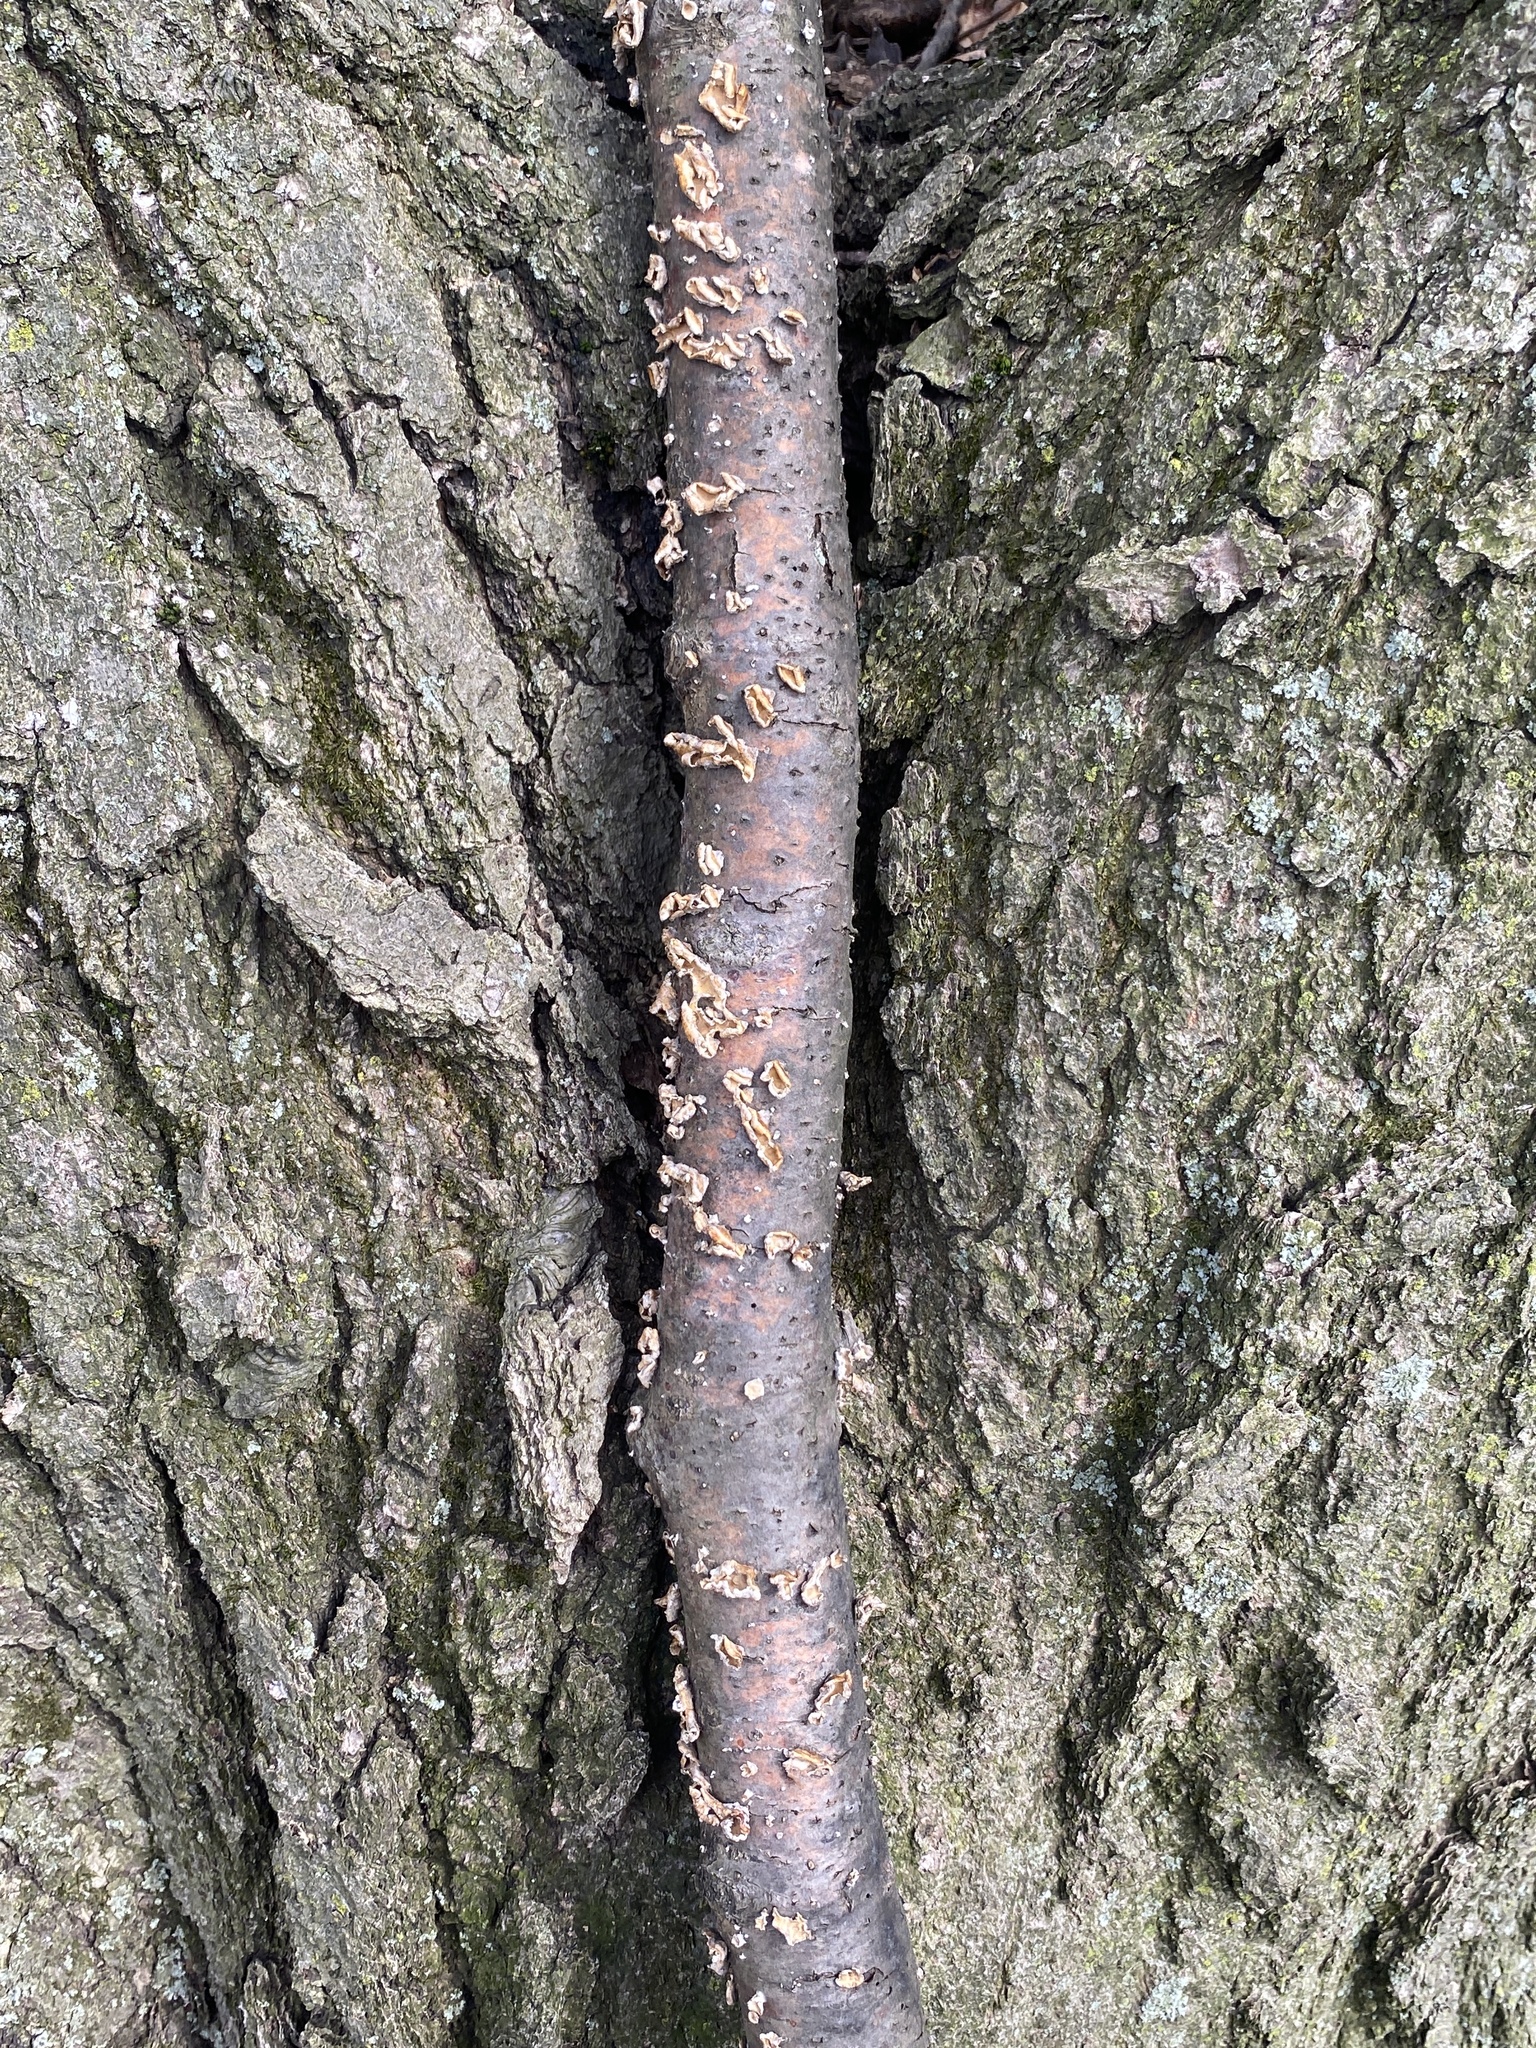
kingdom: Fungi
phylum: Basidiomycota
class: Agaricomycetes
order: Russulales
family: Stereaceae
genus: Stereum
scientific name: Stereum complicatum
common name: Crowded parchment
